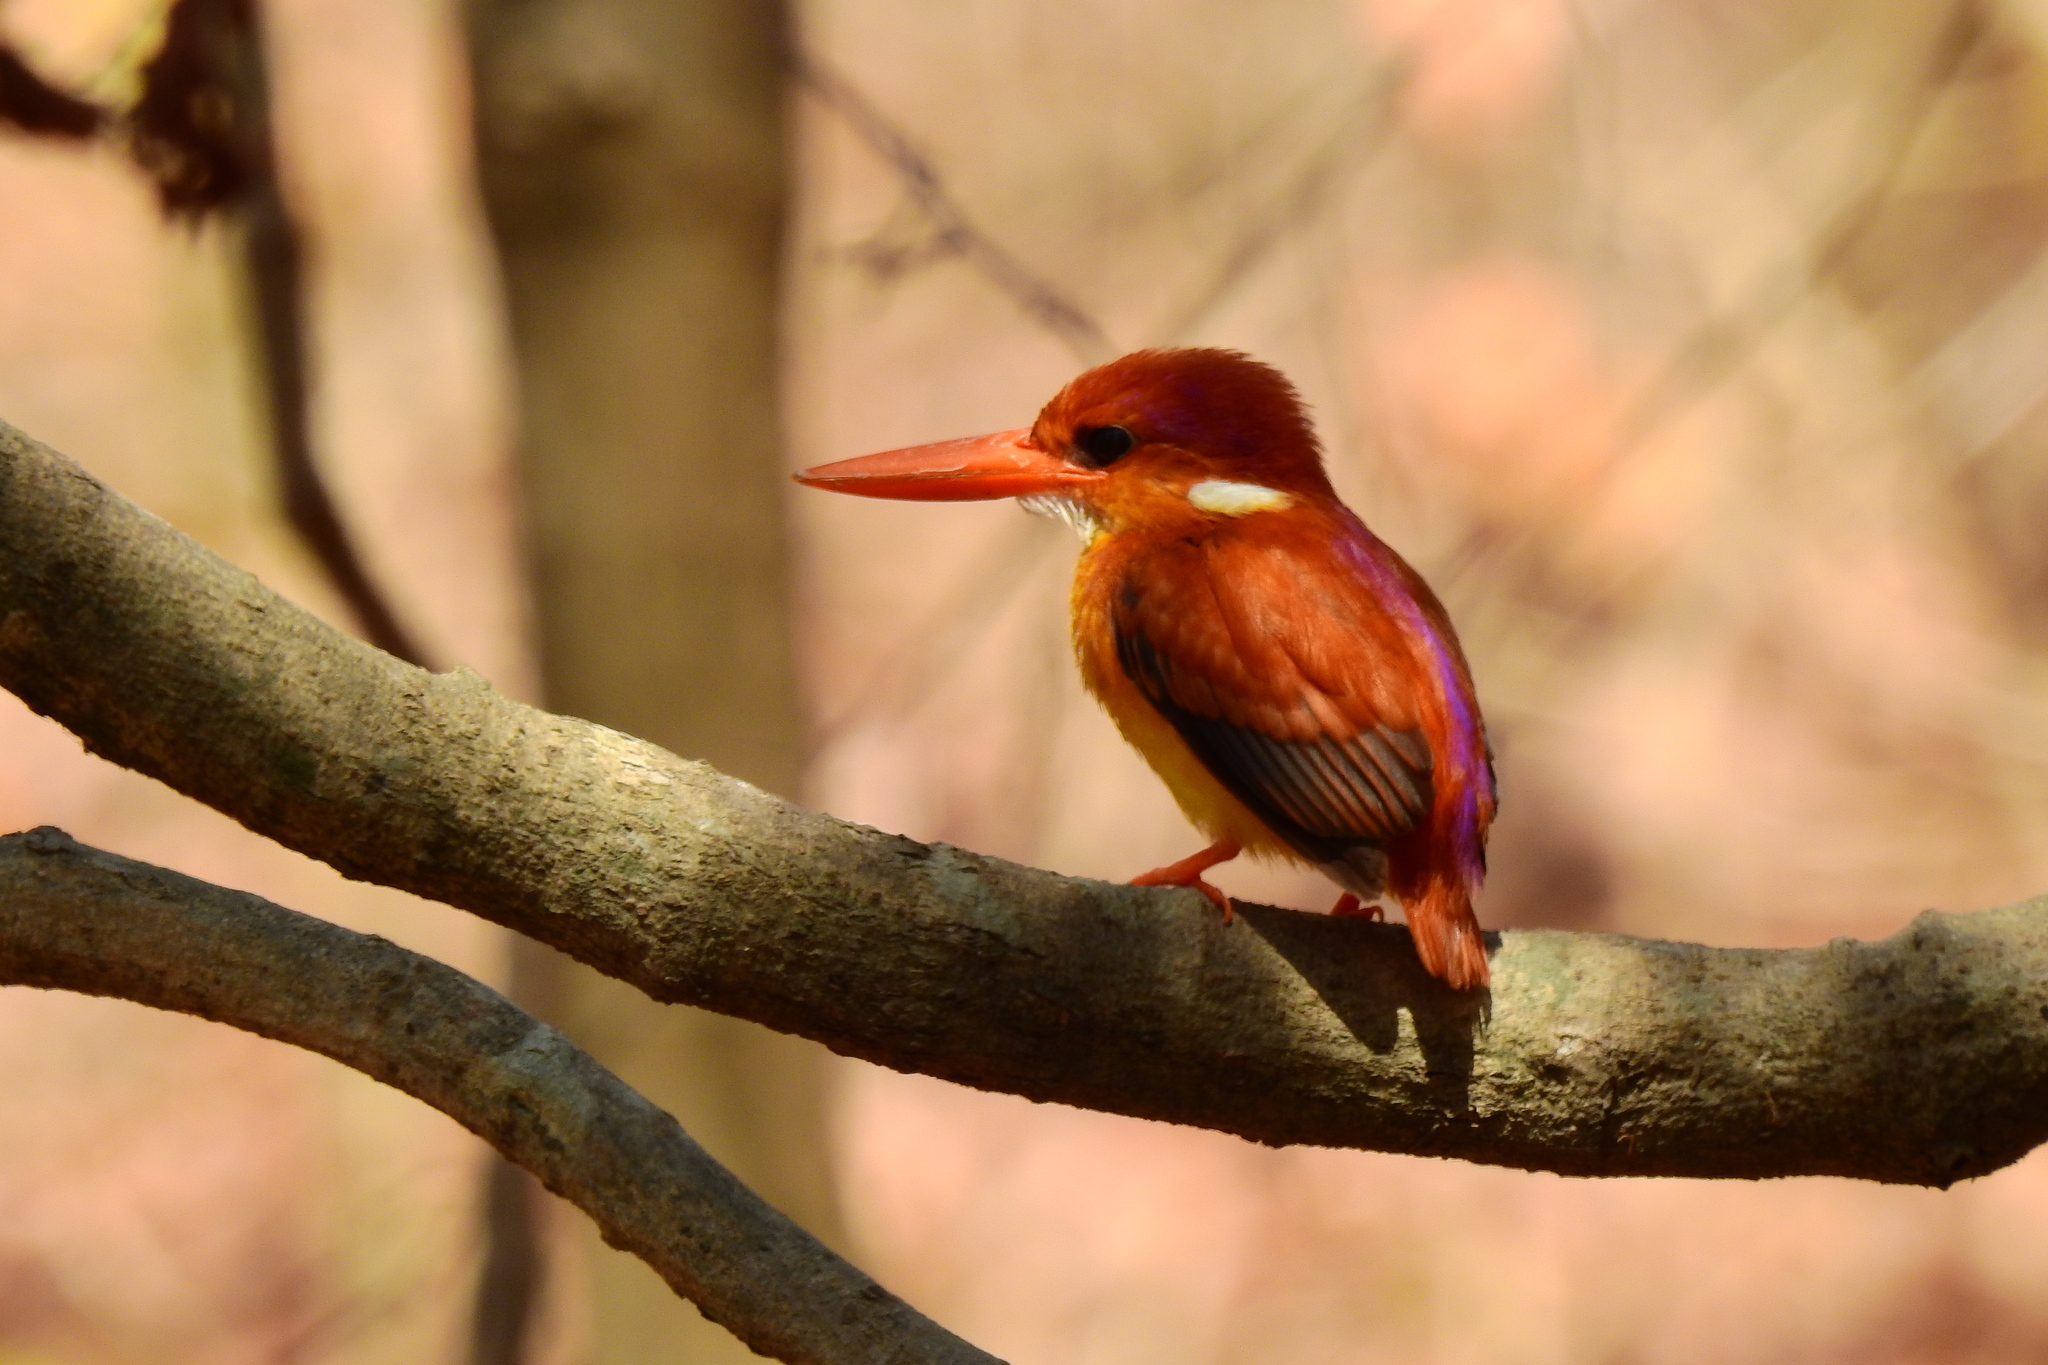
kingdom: Animalia
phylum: Chordata
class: Aves
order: Coraciiformes
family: Alcedinidae
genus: Ceyx
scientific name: Ceyx erithaca
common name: Oriental dwarf kingfisher
